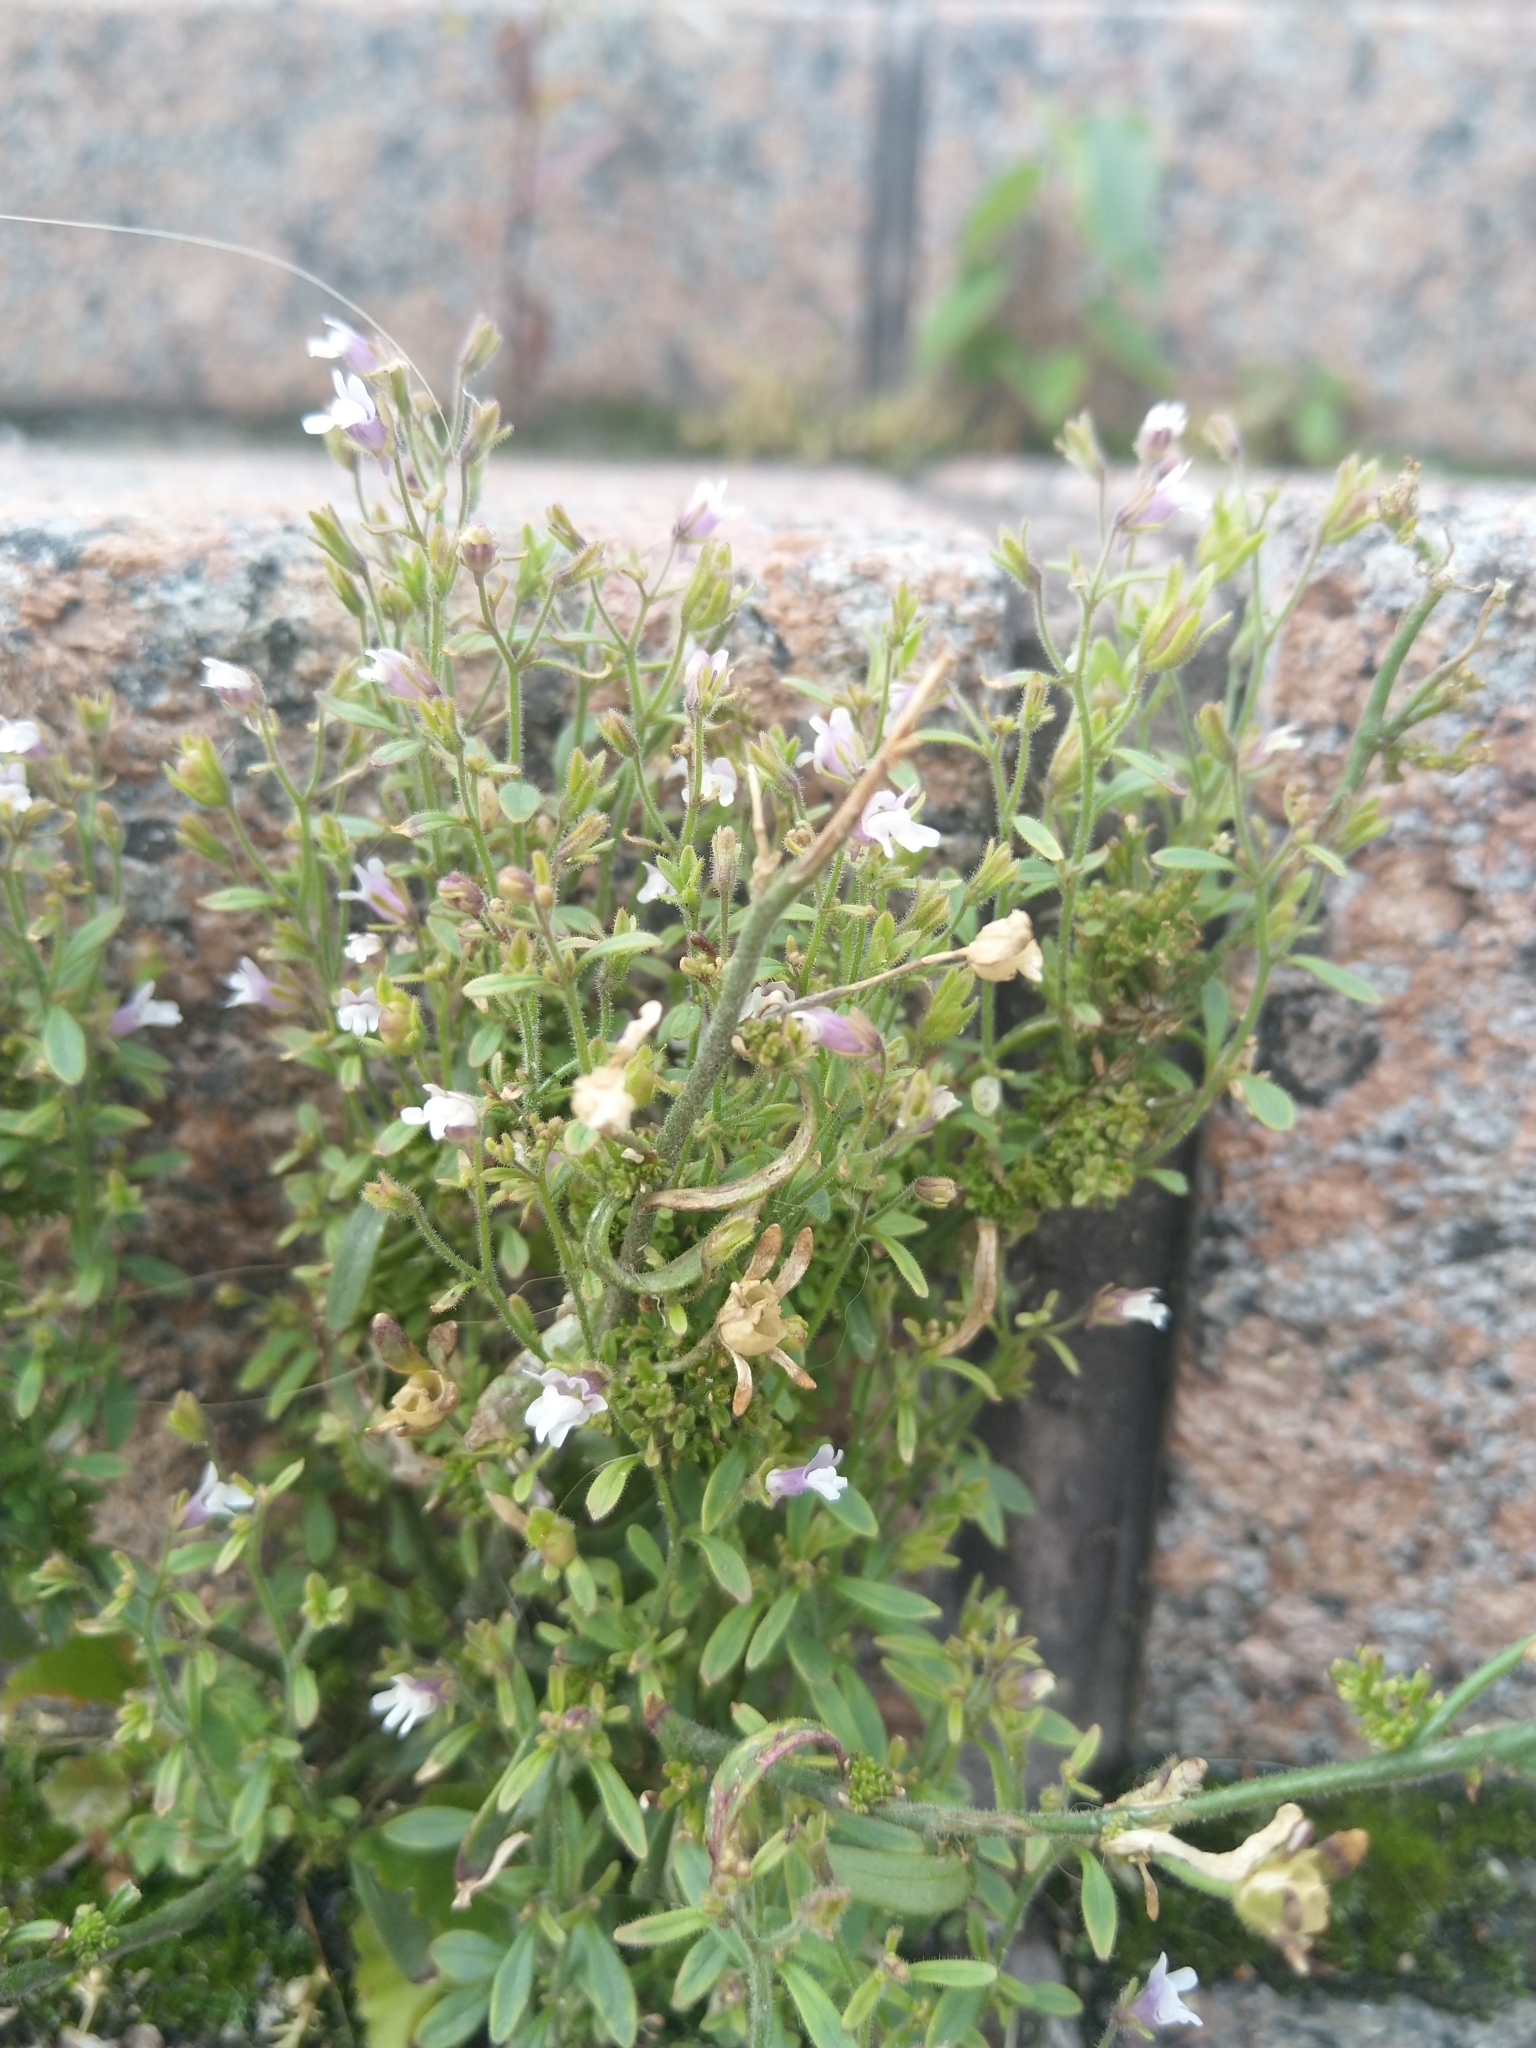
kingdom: Plantae
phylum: Tracheophyta
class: Magnoliopsida
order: Lamiales
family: Plantaginaceae
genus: Chaenorhinum
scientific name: Chaenorhinum minus
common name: Dwarf snapdragon
